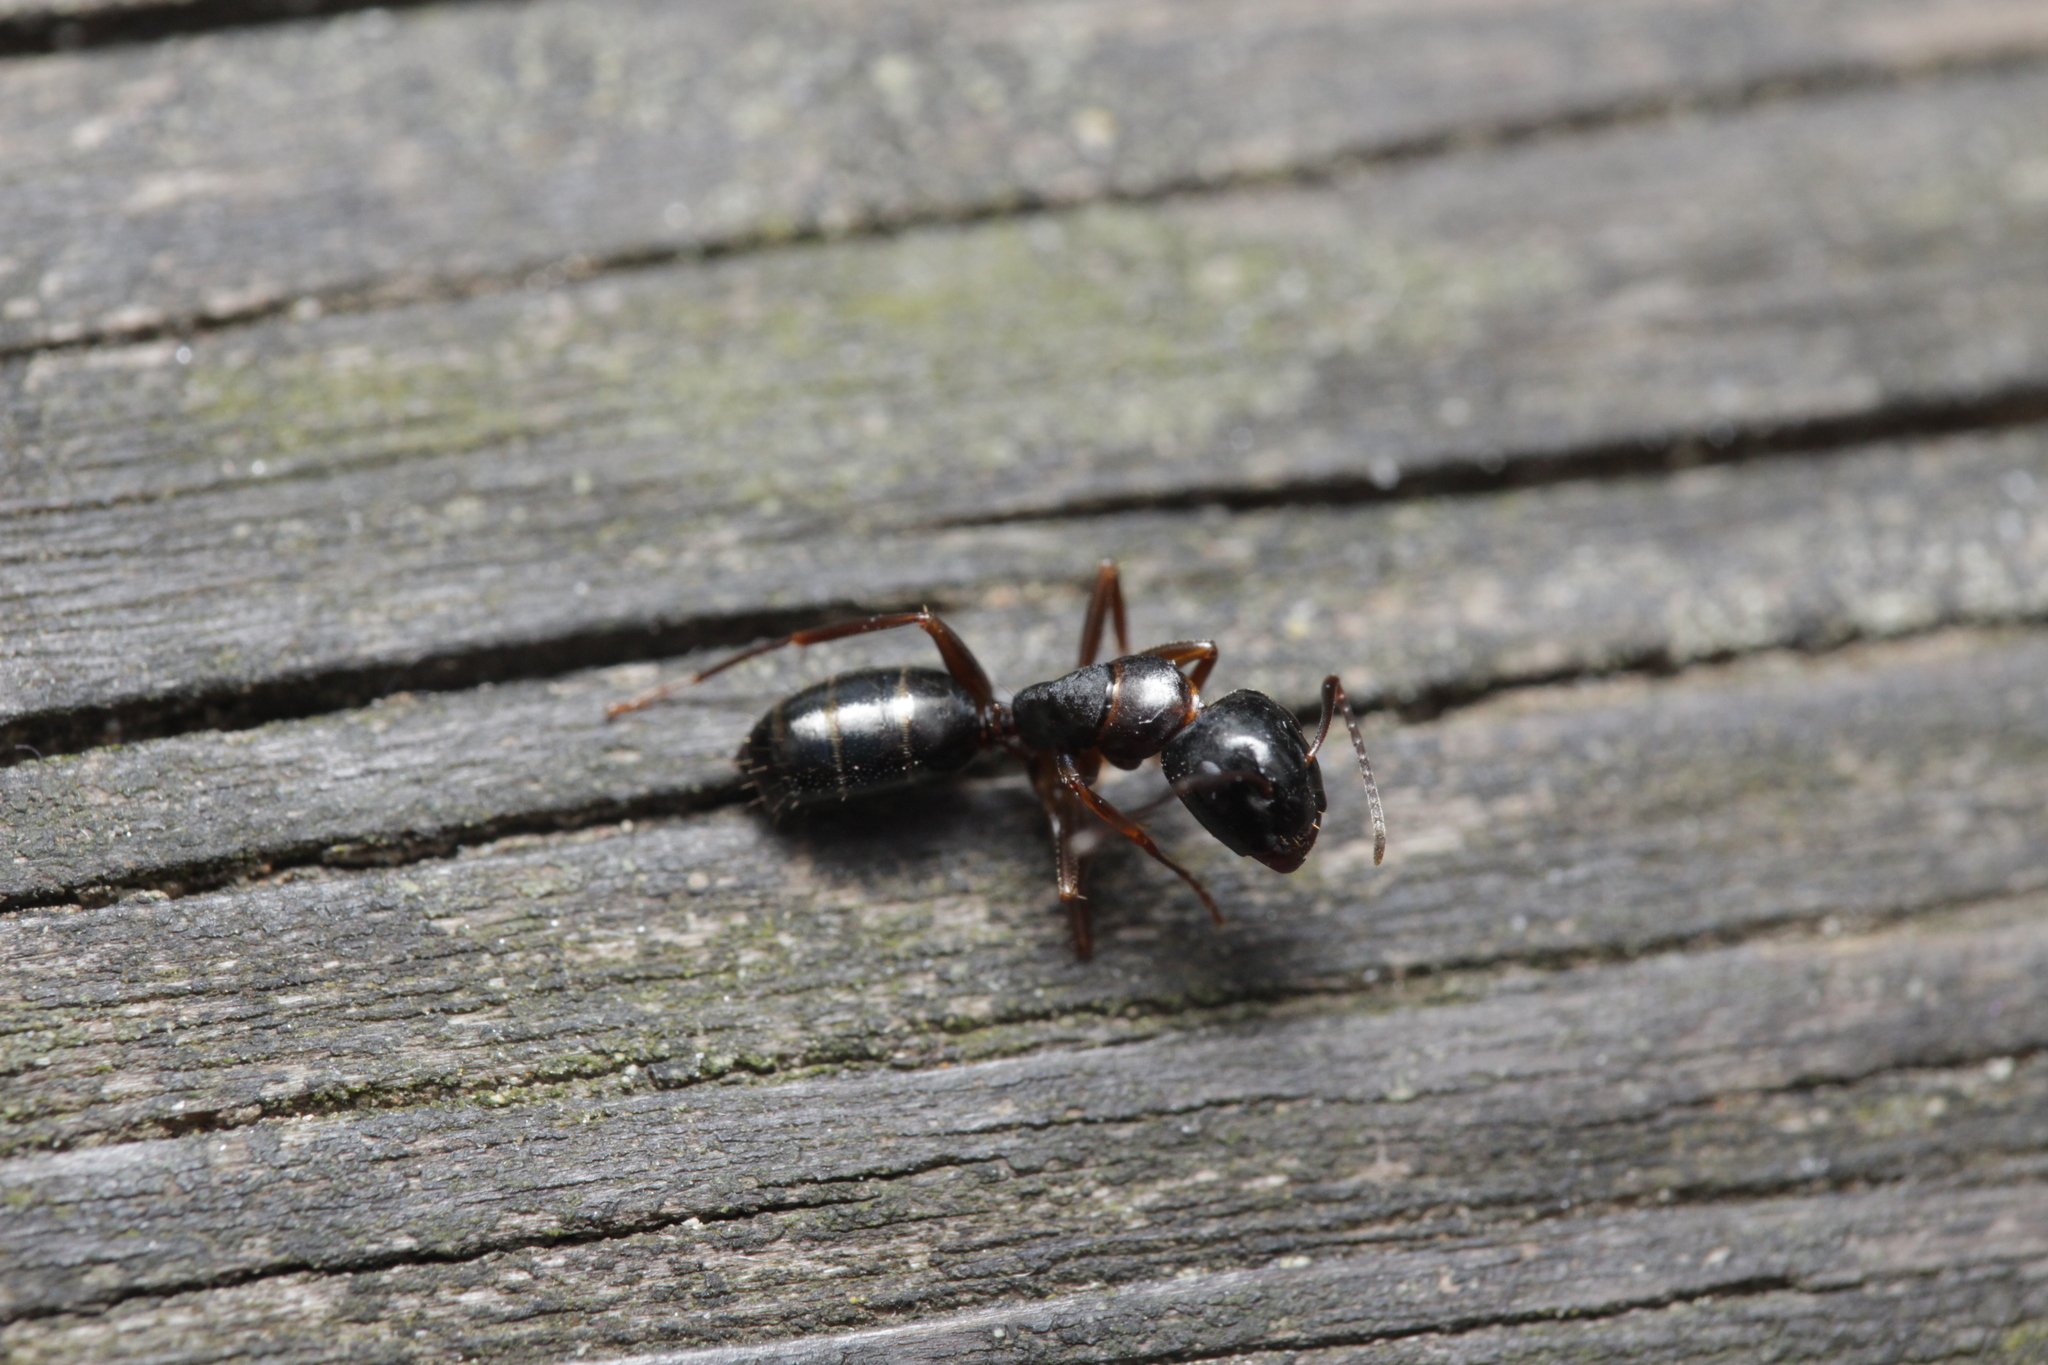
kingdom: Animalia
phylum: Arthropoda
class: Insecta
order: Hymenoptera
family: Formicidae
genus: Camponotus
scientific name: Camponotus fallax
